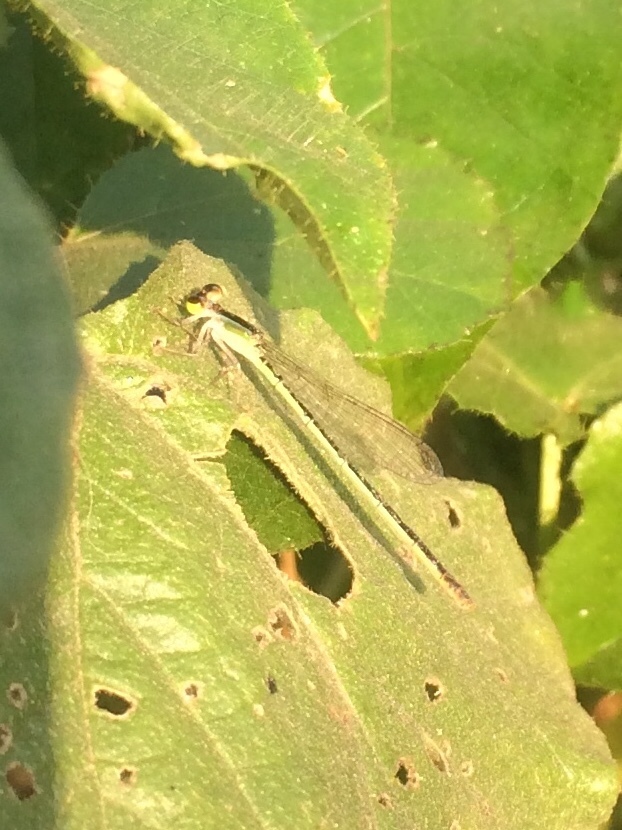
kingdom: Animalia
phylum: Arthropoda
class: Insecta
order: Odonata
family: Coenagrionidae
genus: Ischnura
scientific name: Ischnura senegalensis
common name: Tropical bluetail
